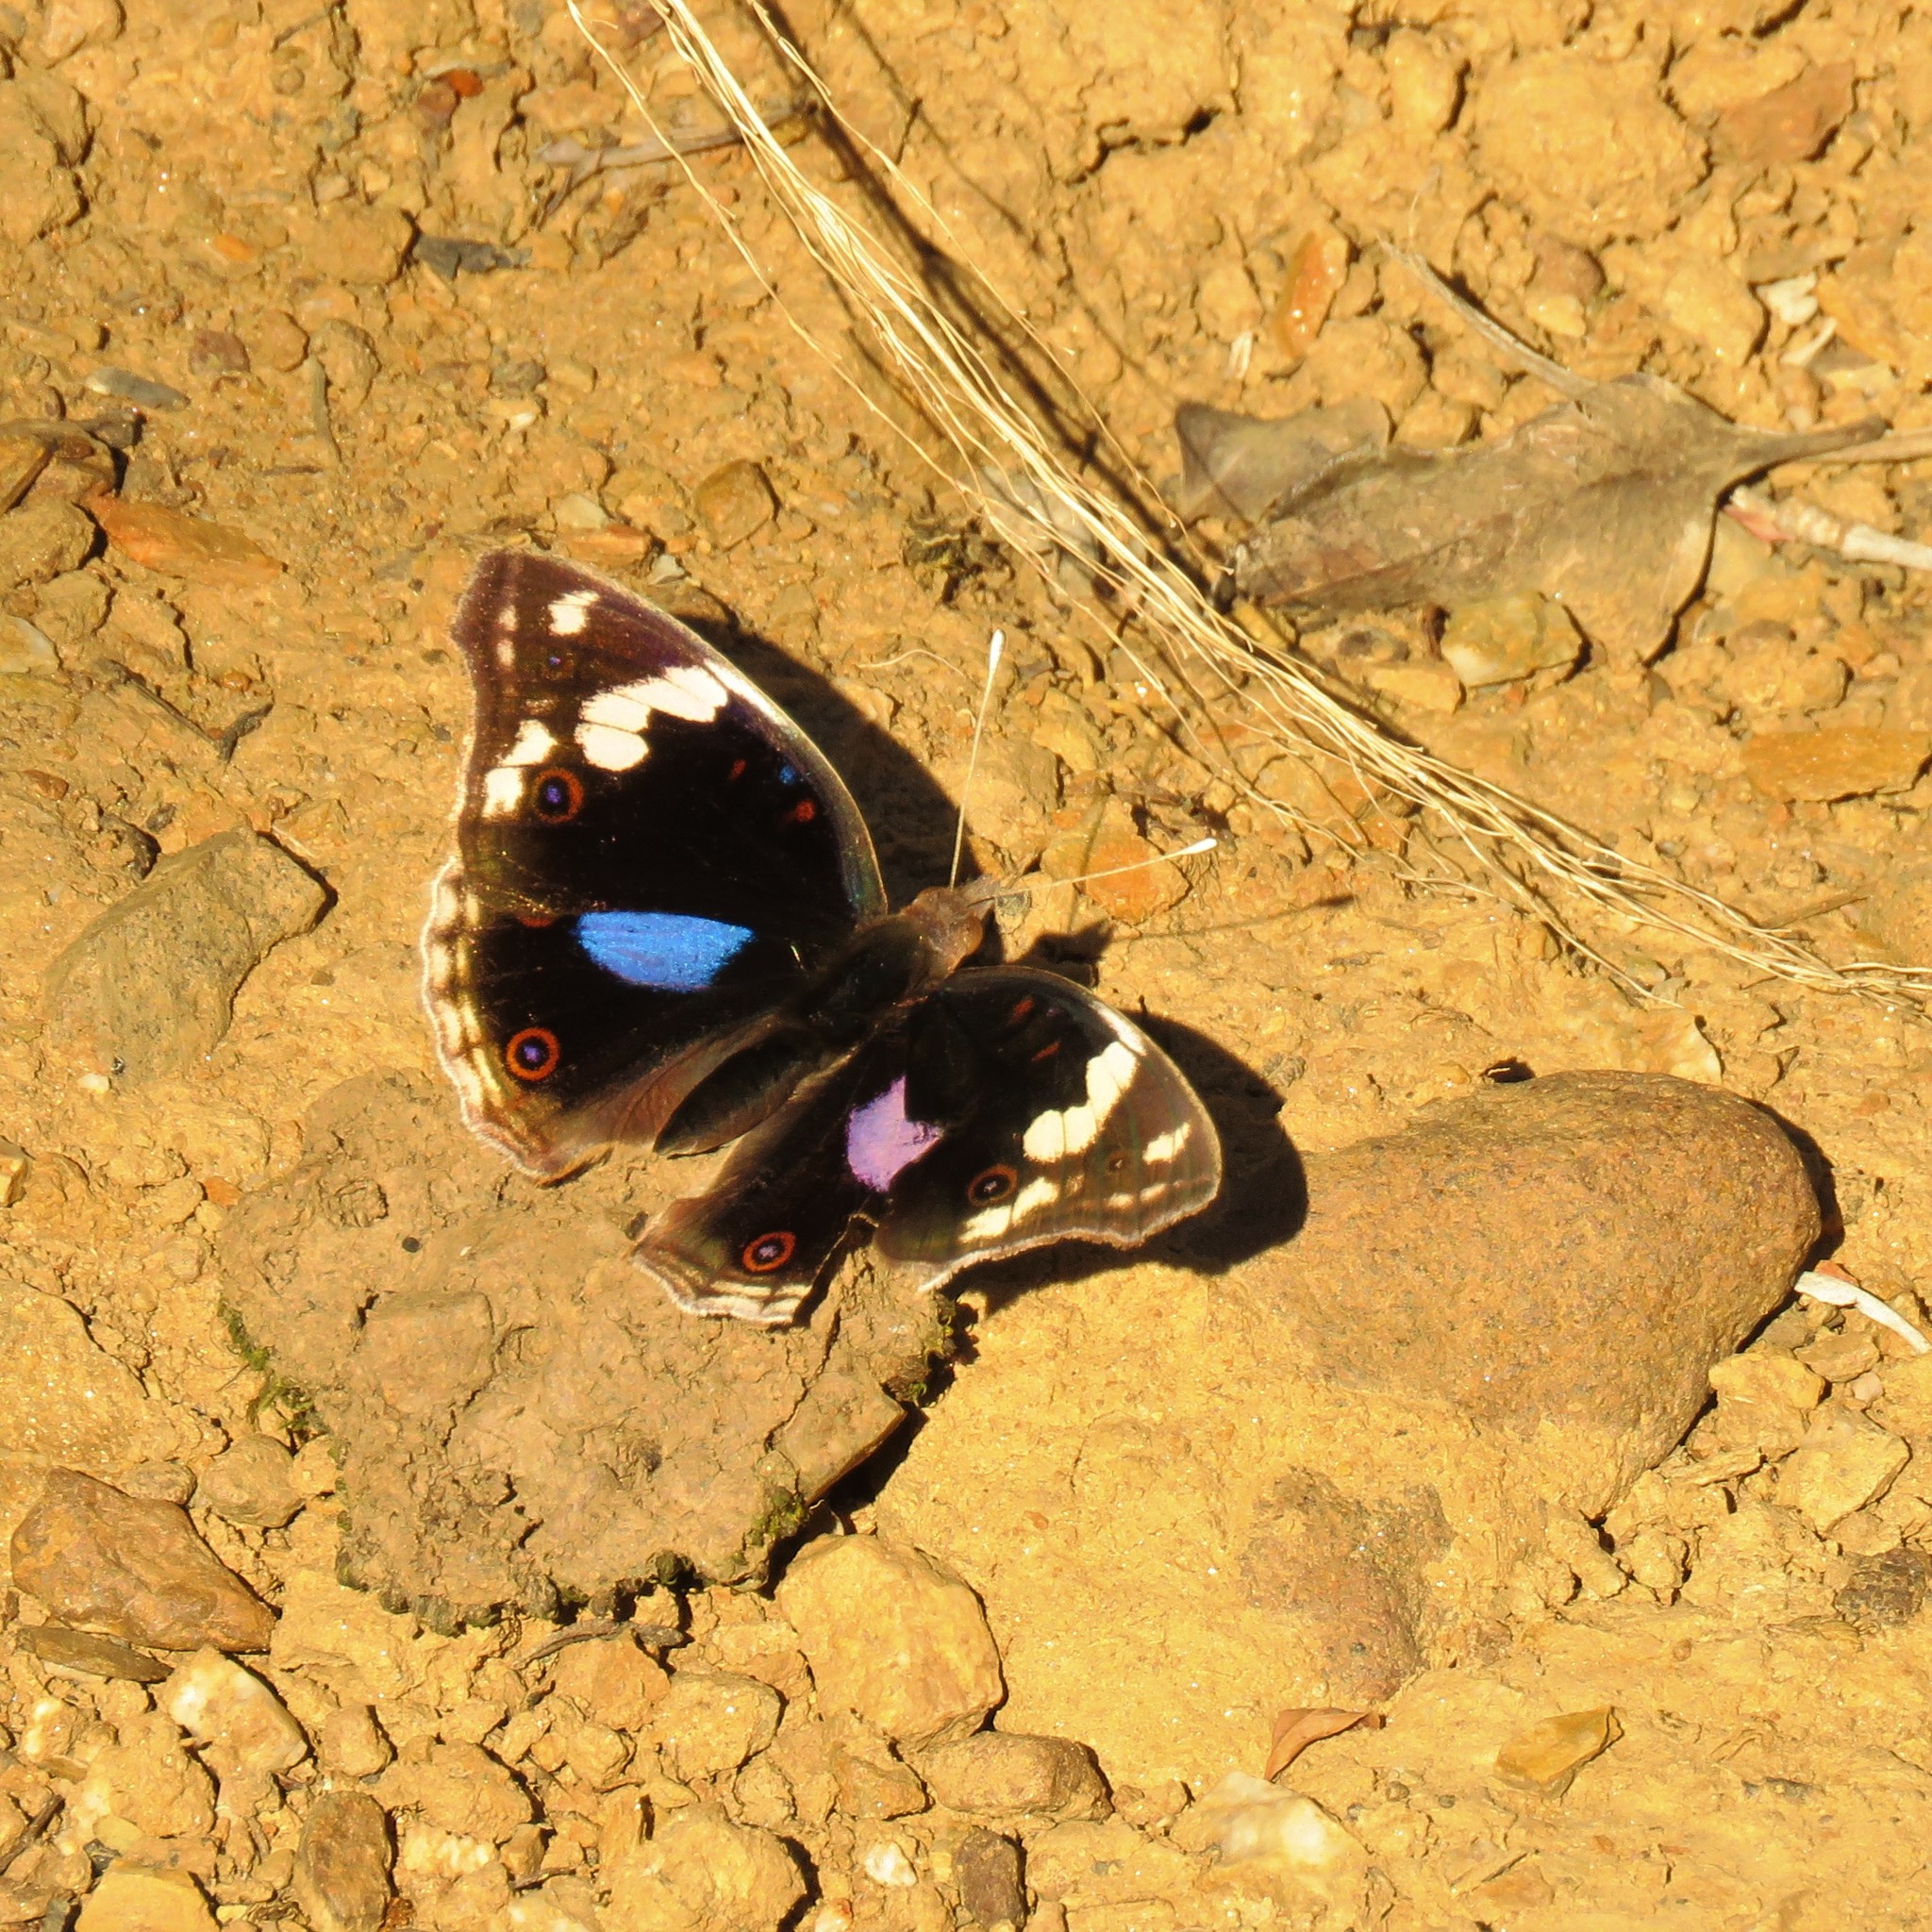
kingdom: Animalia
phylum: Arthropoda
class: Insecta
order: Lepidoptera
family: Nymphalidae
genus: Junonia
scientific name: Junonia oenone
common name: Dark blue pansy
